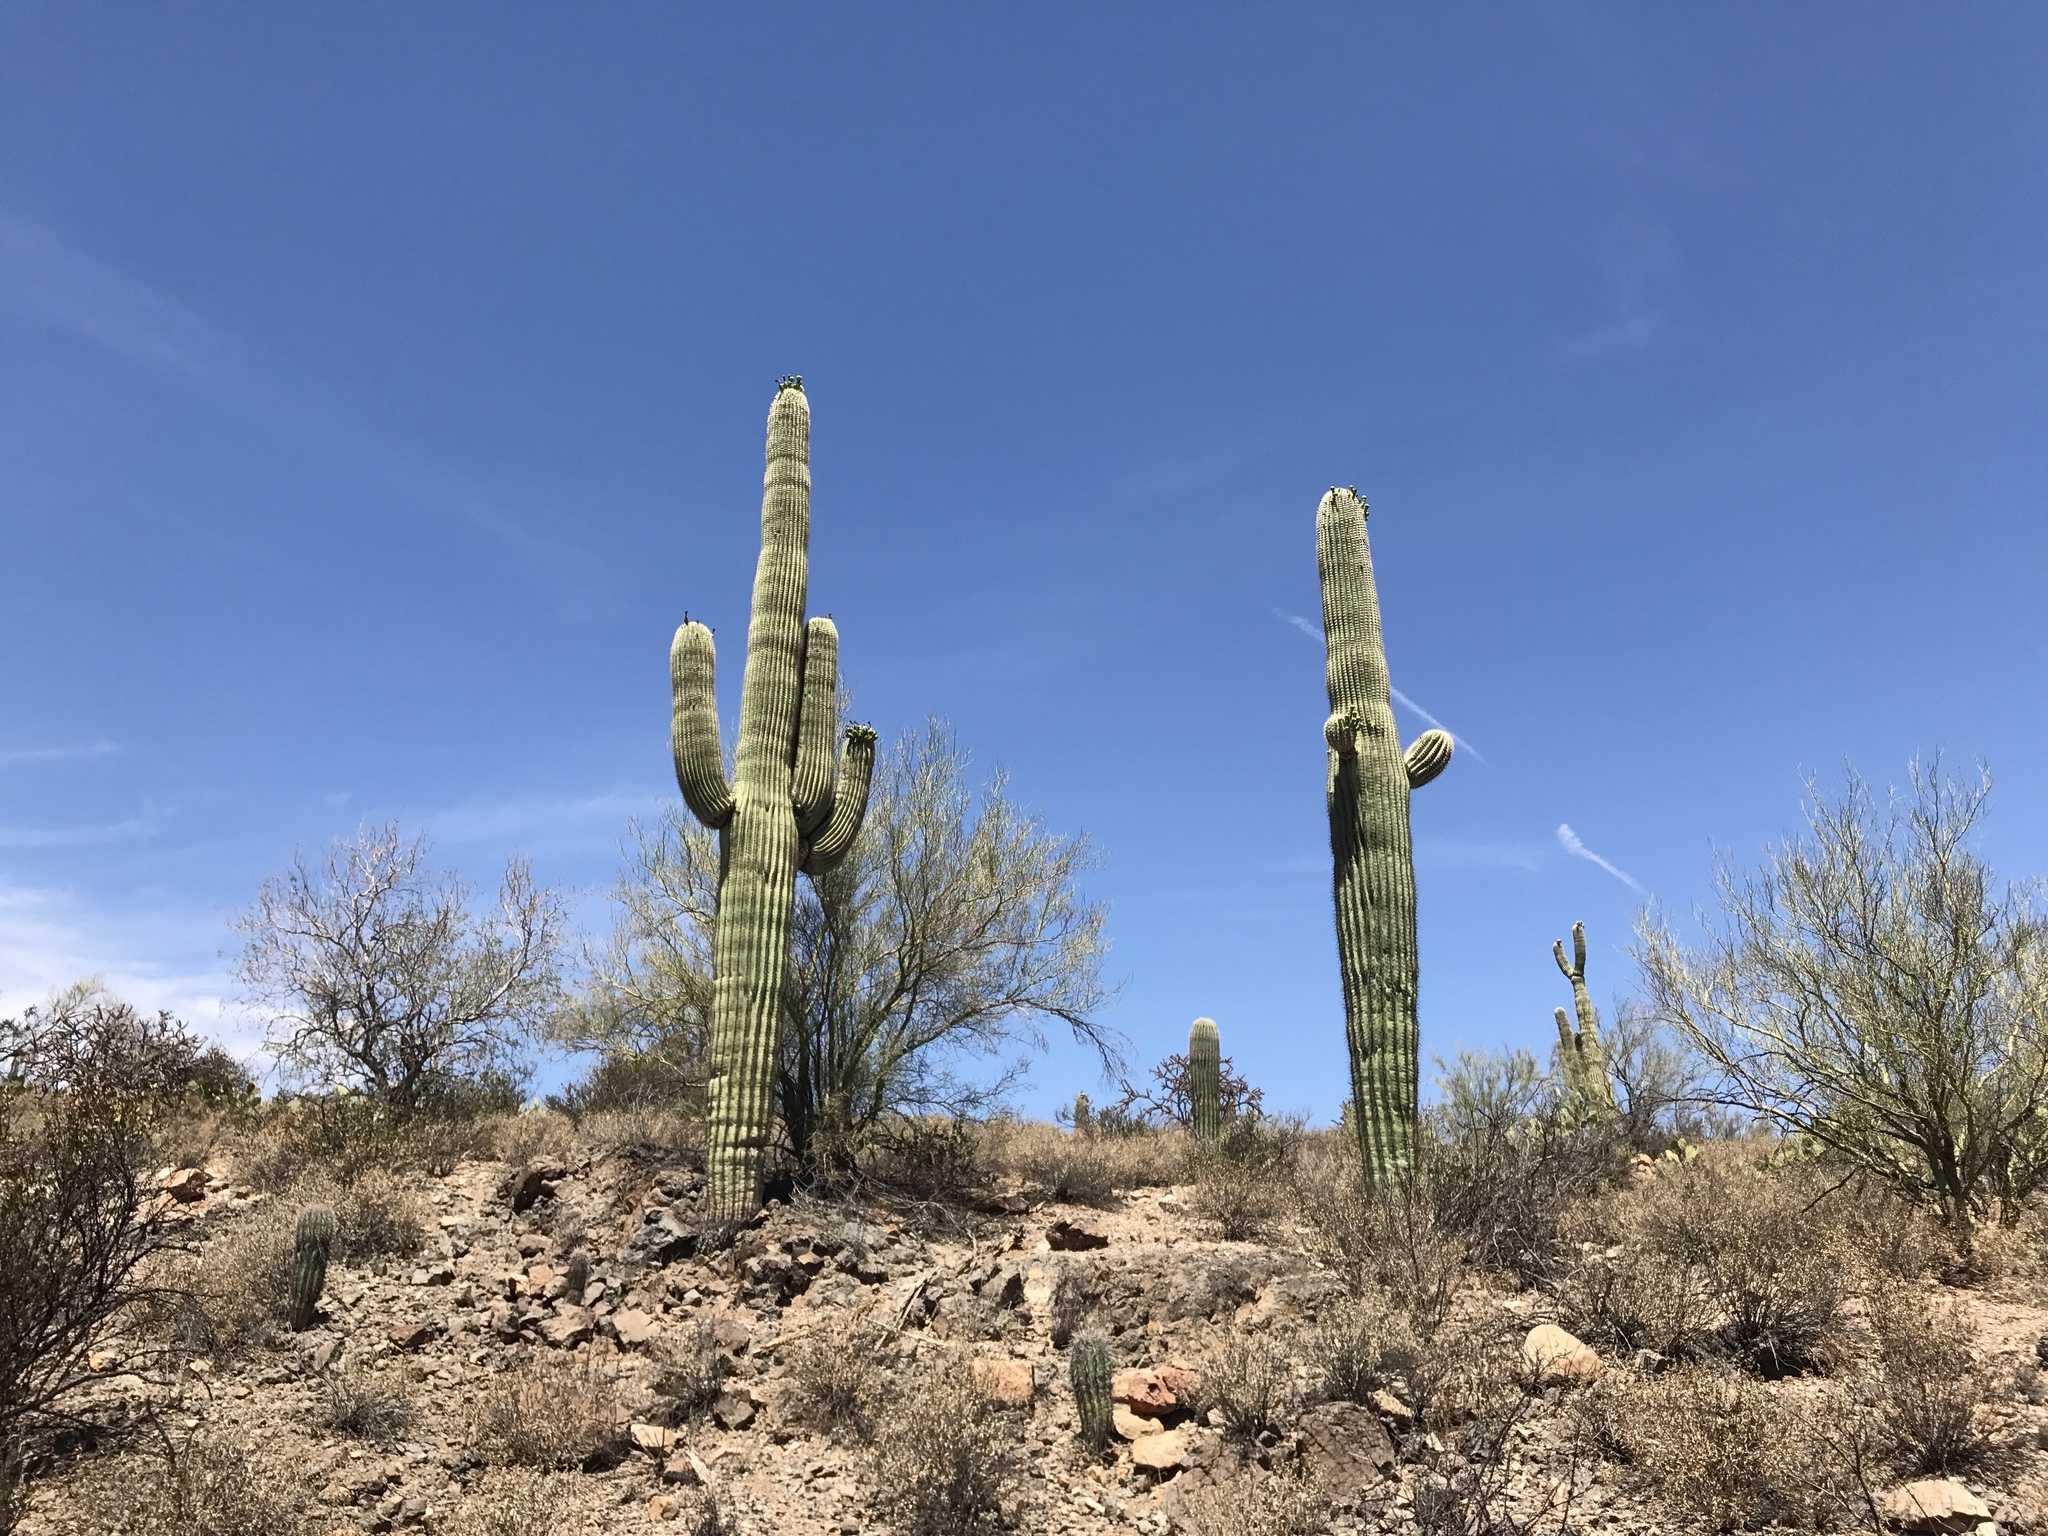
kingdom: Plantae
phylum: Tracheophyta
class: Magnoliopsida
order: Caryophyllales
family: Cactaceae
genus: Carnegiea
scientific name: Carnegiea gigantea
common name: Saguaro
